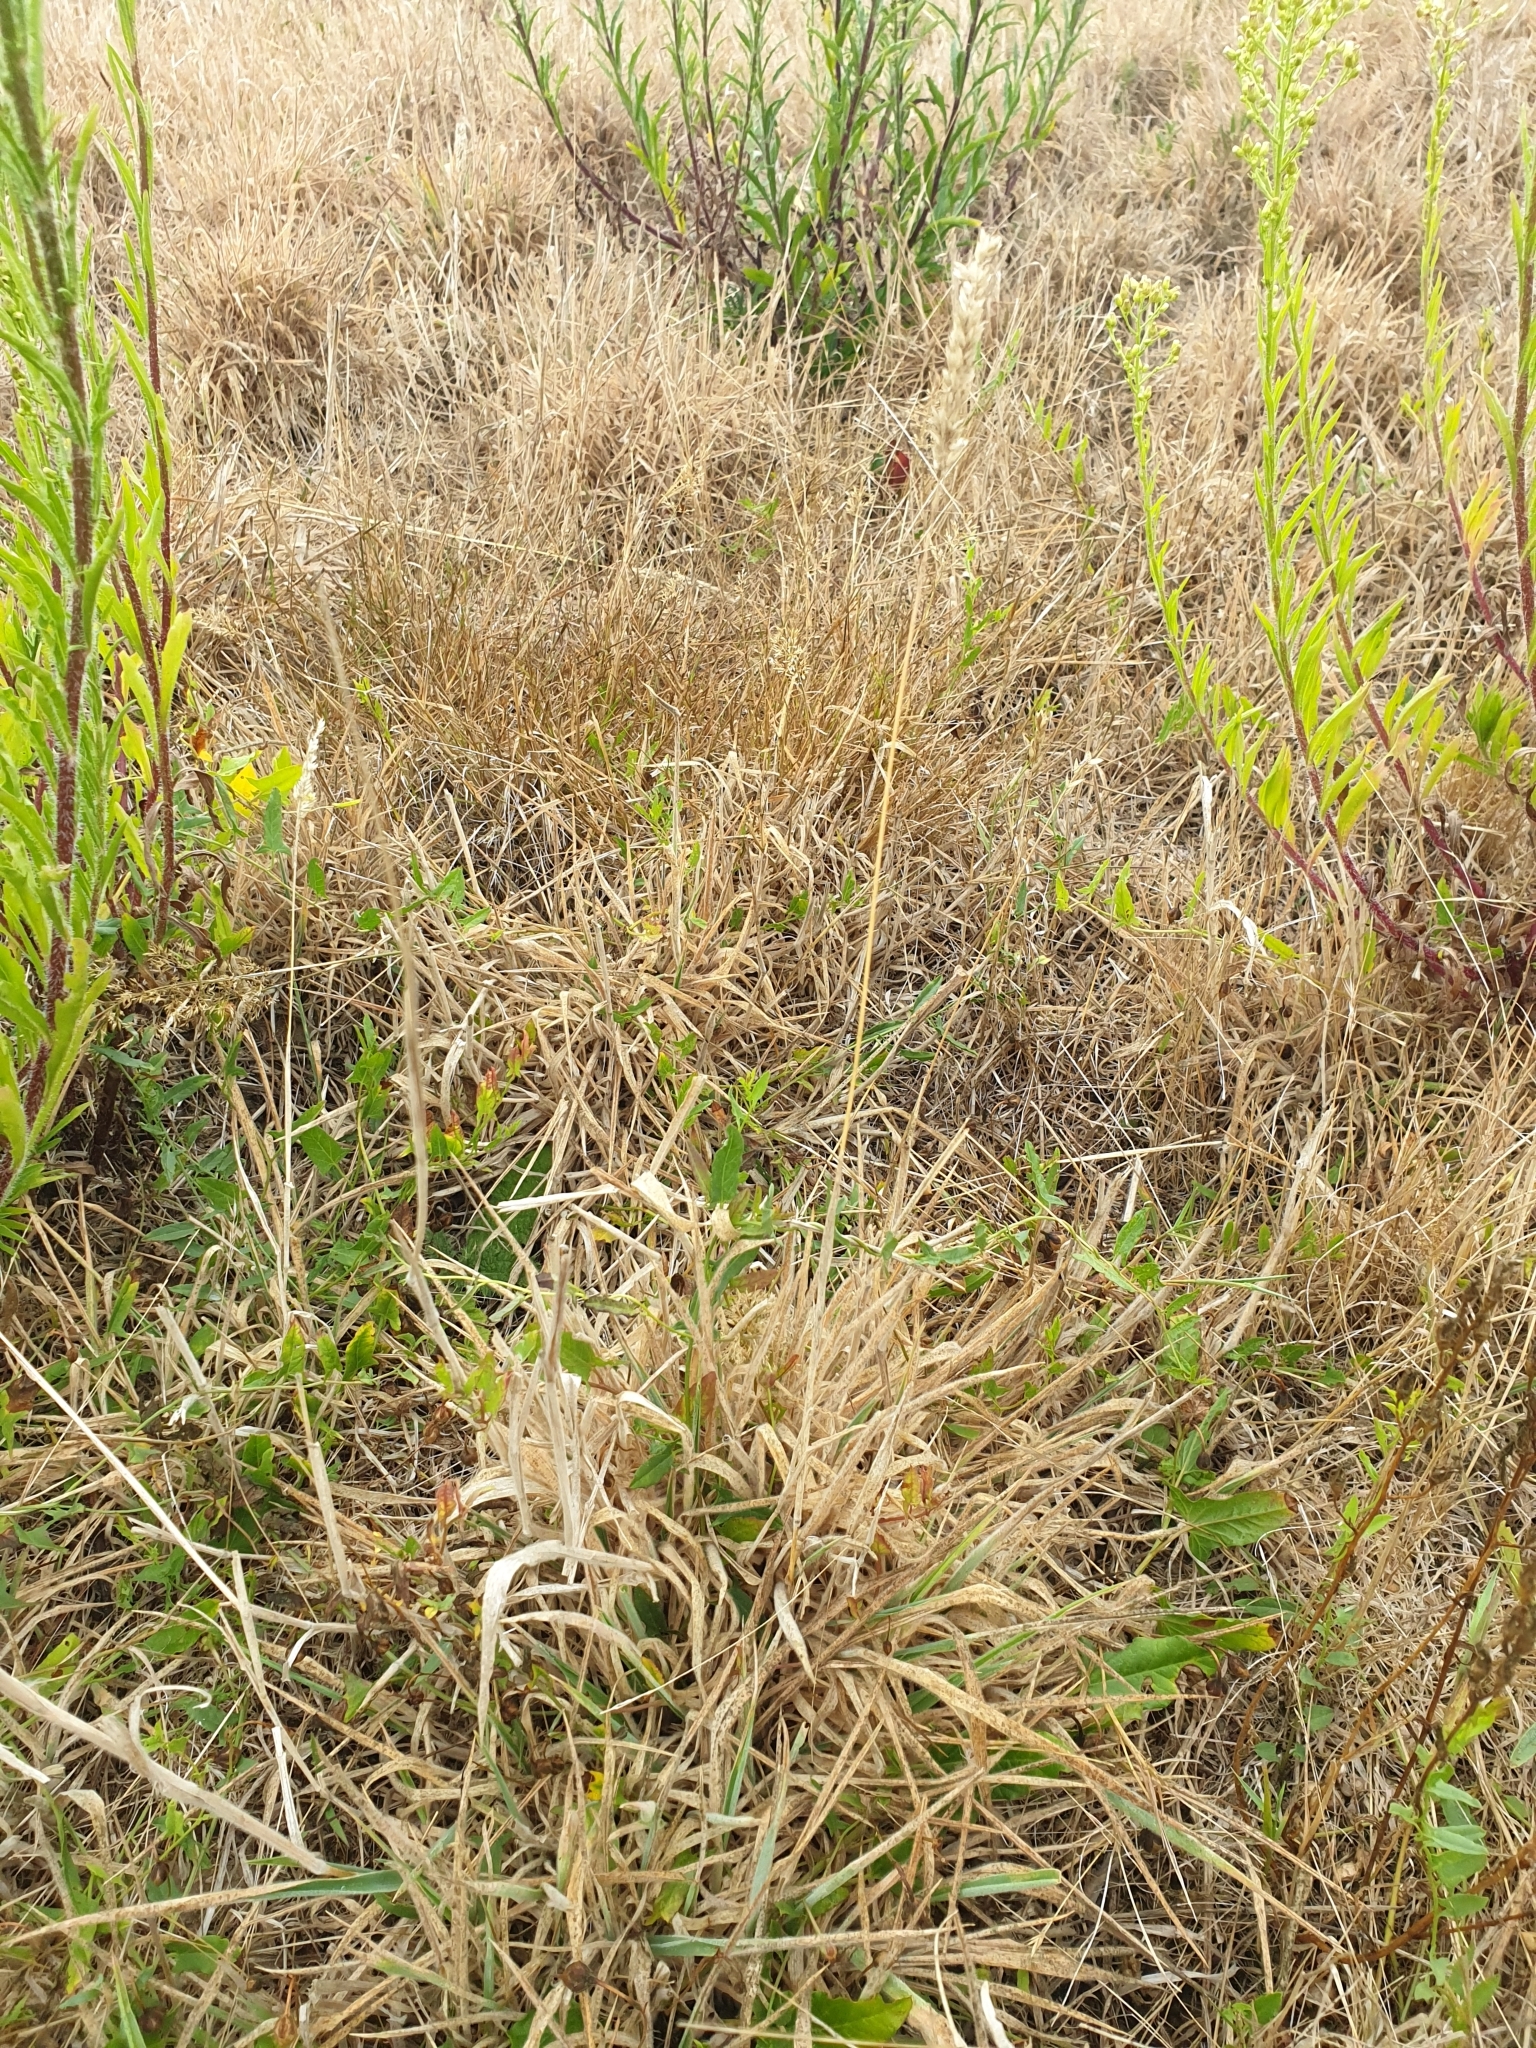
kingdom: Plantae
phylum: Tracheophyta
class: Liliopsida
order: Poales
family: Poaceae
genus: Holcus
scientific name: Holcus lanatus
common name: Yorkshire-fog
